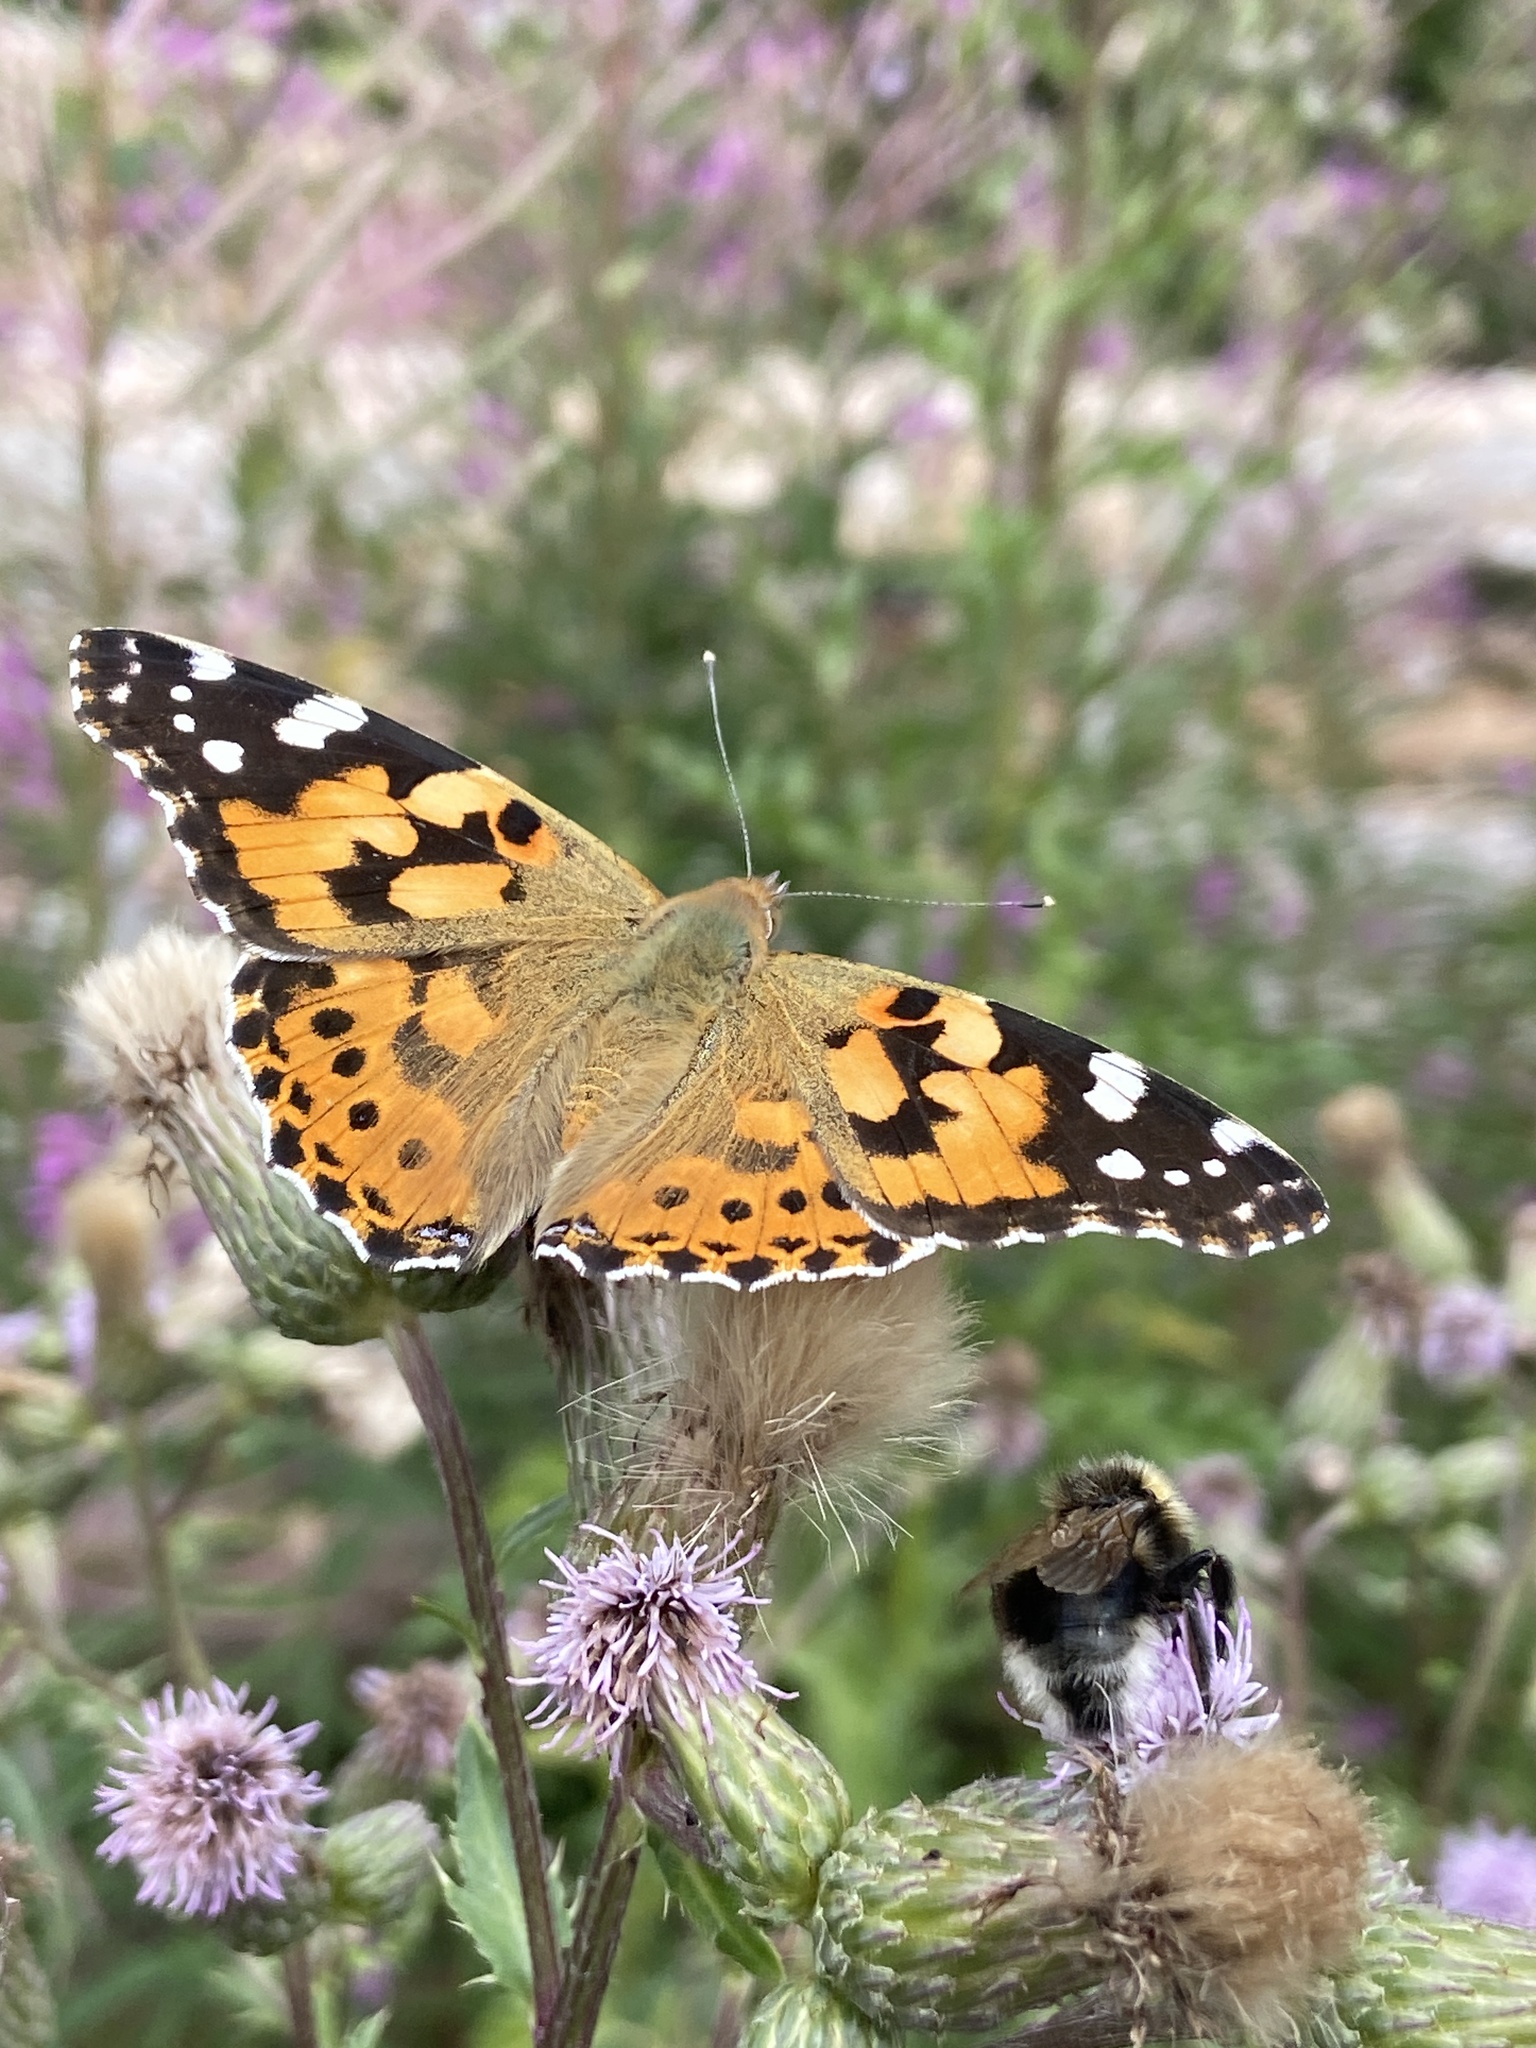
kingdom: Animalia
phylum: Arthropoda
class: Insecta
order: Lepidoptera
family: Nymphalidae
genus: Vanessa
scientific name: Vanessa cardui
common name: Painted lady
